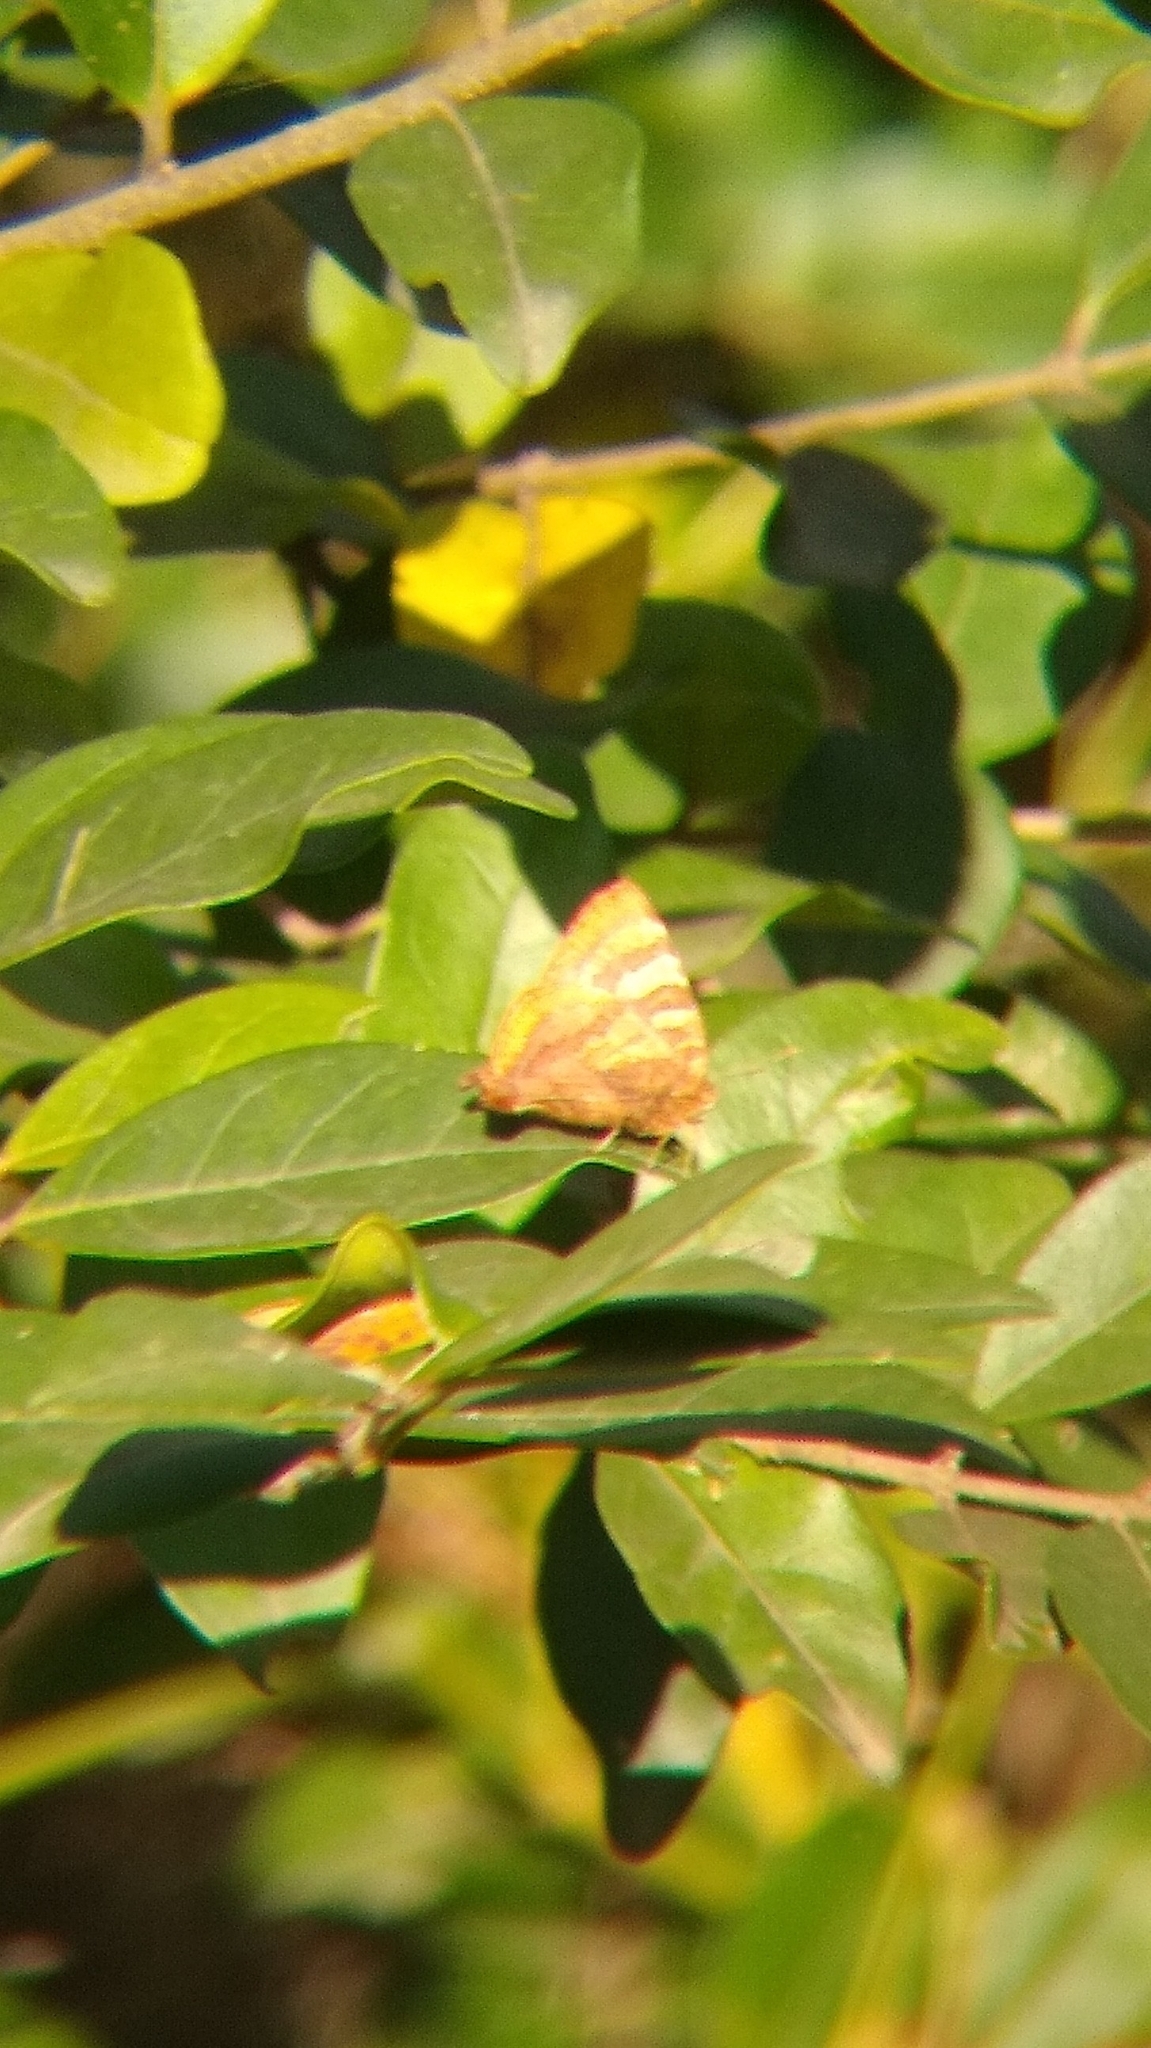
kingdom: Animalia
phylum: Arthropoda
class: Insecta
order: Lepidoptera
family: Lycaenidae
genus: Arawacus
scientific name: Arawacus ellida
